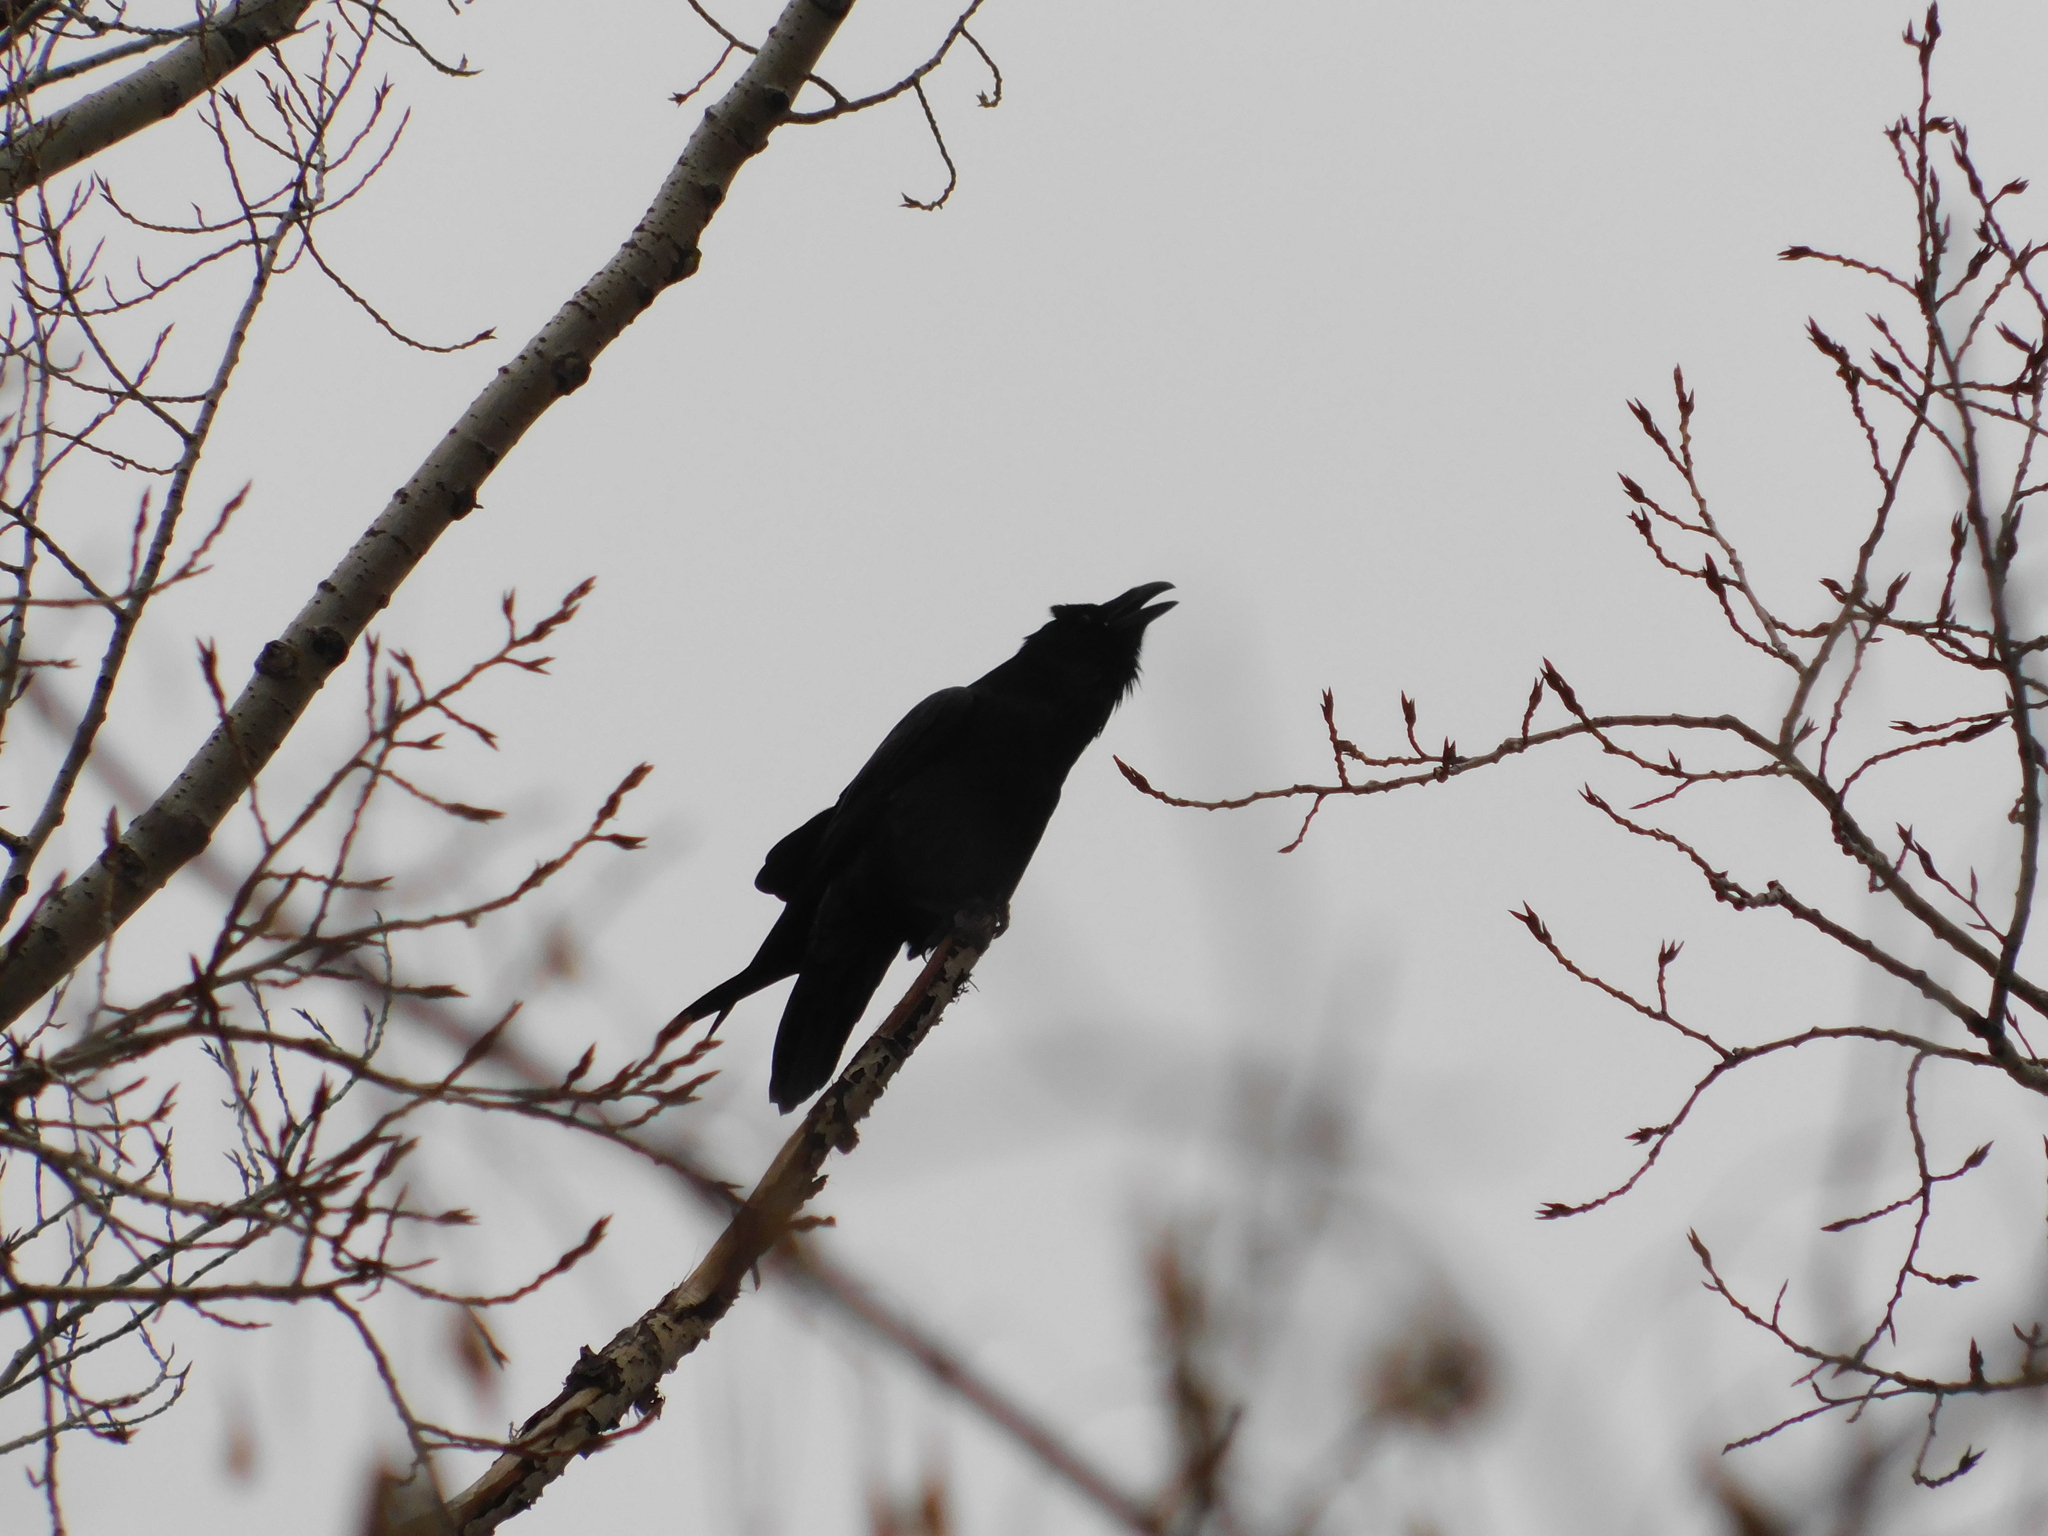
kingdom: Animalia
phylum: Chordata
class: Aves
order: Passeriformes
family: Corvidae
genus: Corvus
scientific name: Corvus corax
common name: Common raven
